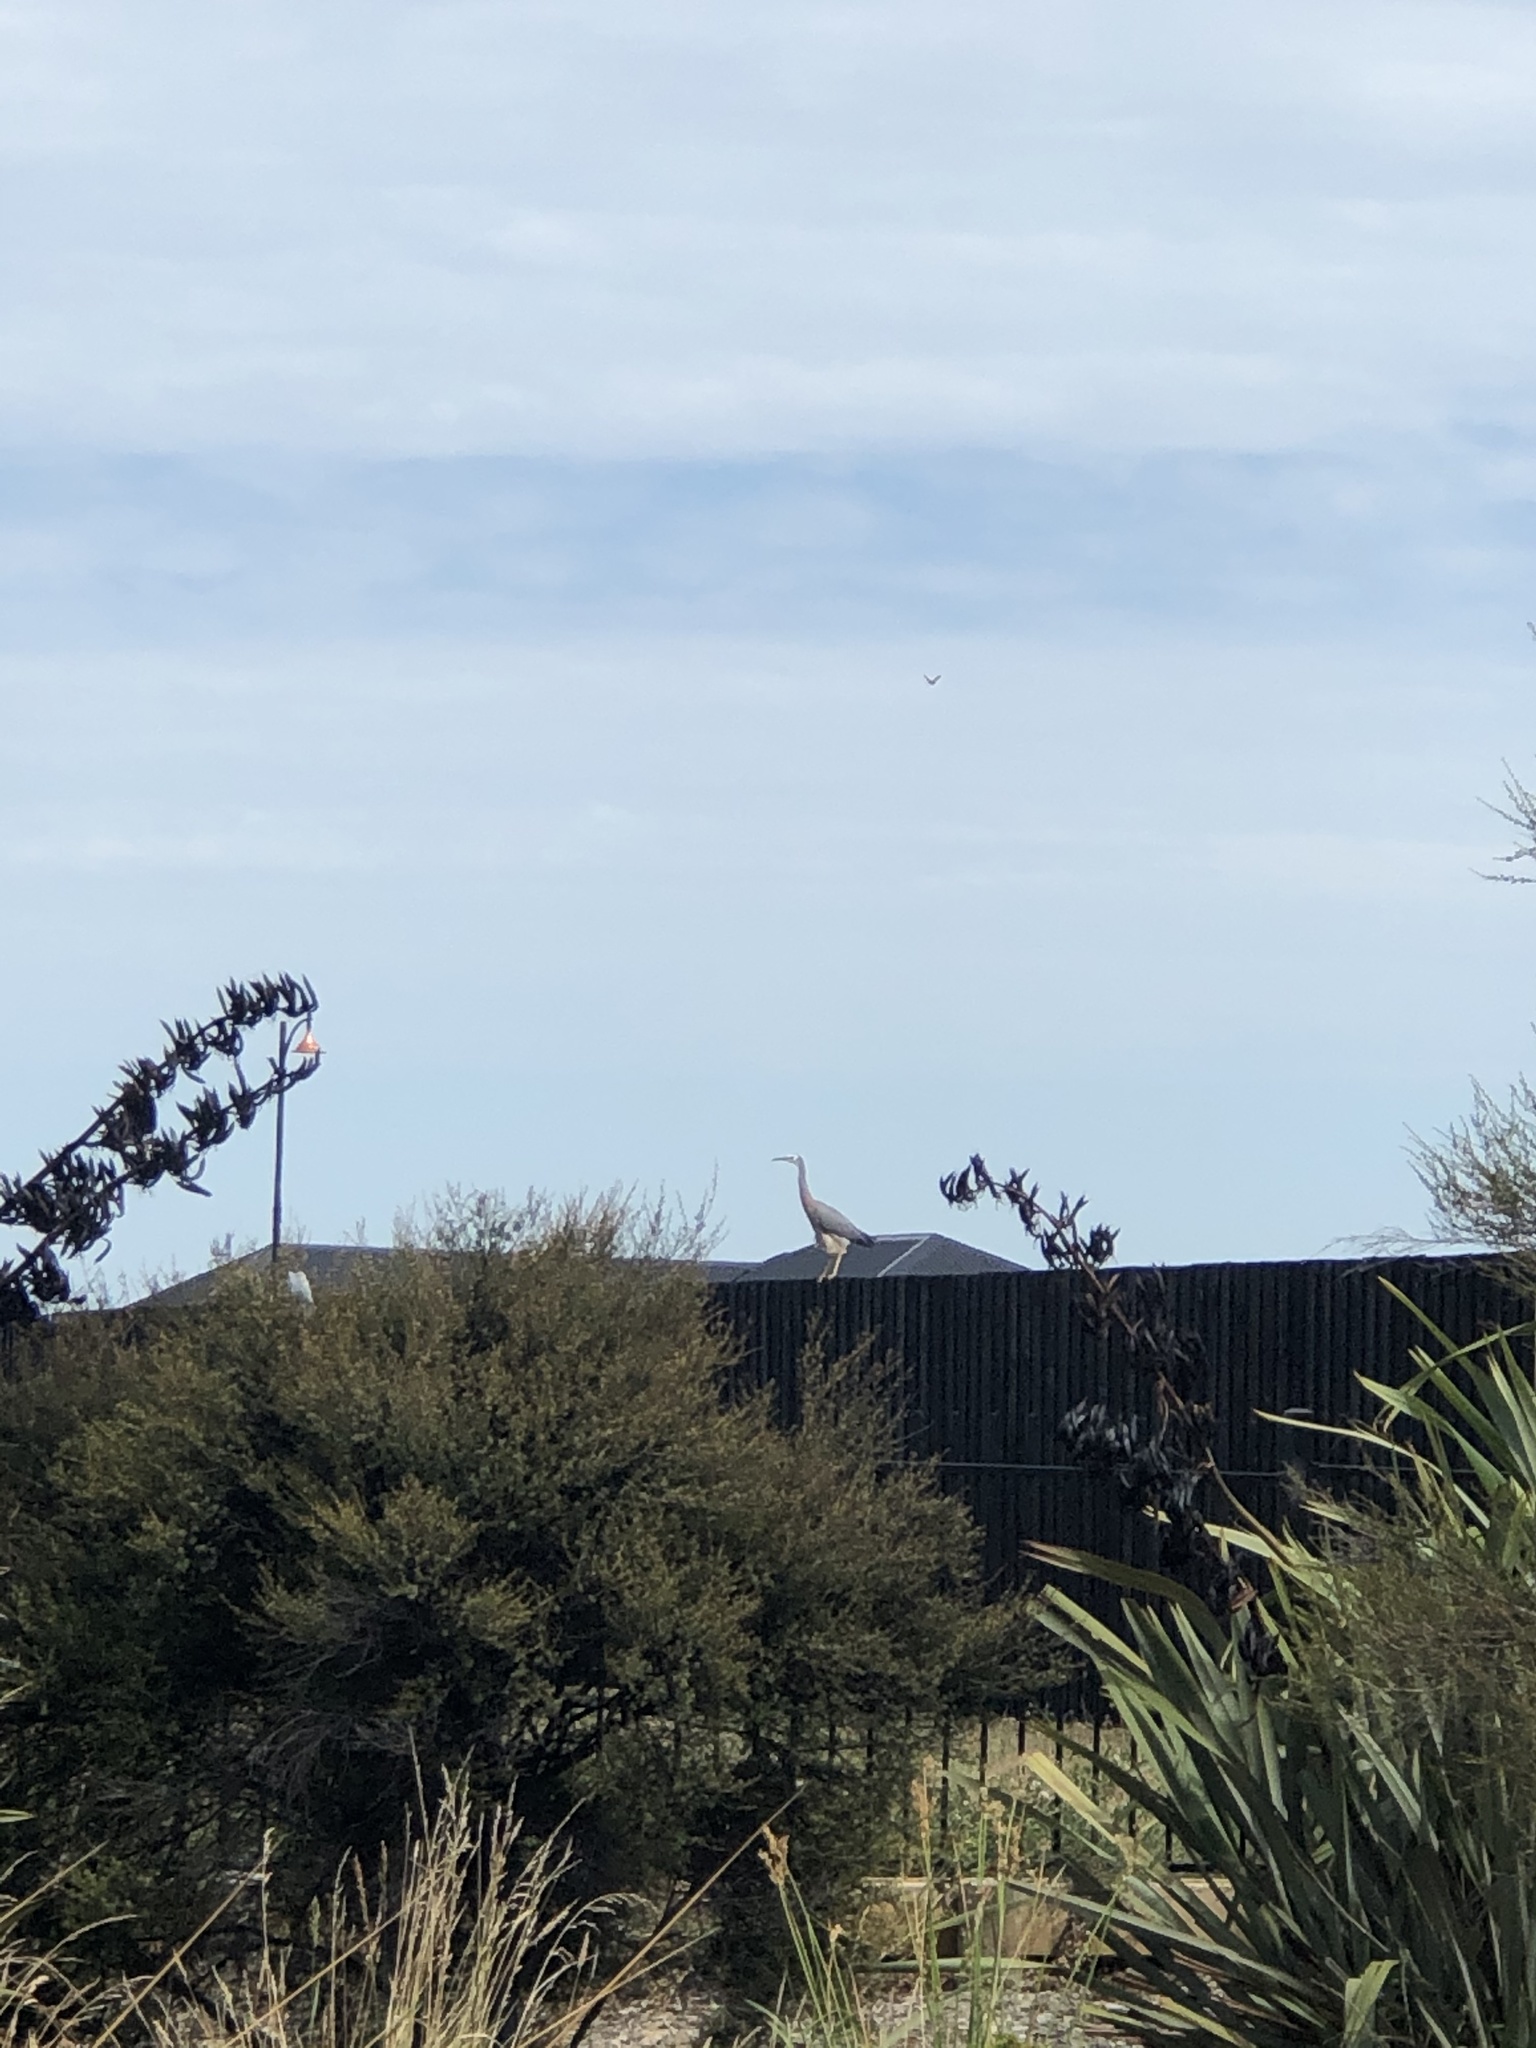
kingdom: Animalia
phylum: Chordata
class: Aves
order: Pelecaniformes
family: Ardeidae
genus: Egretta
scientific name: Egretta novaehollandiae
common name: White-faced heron
